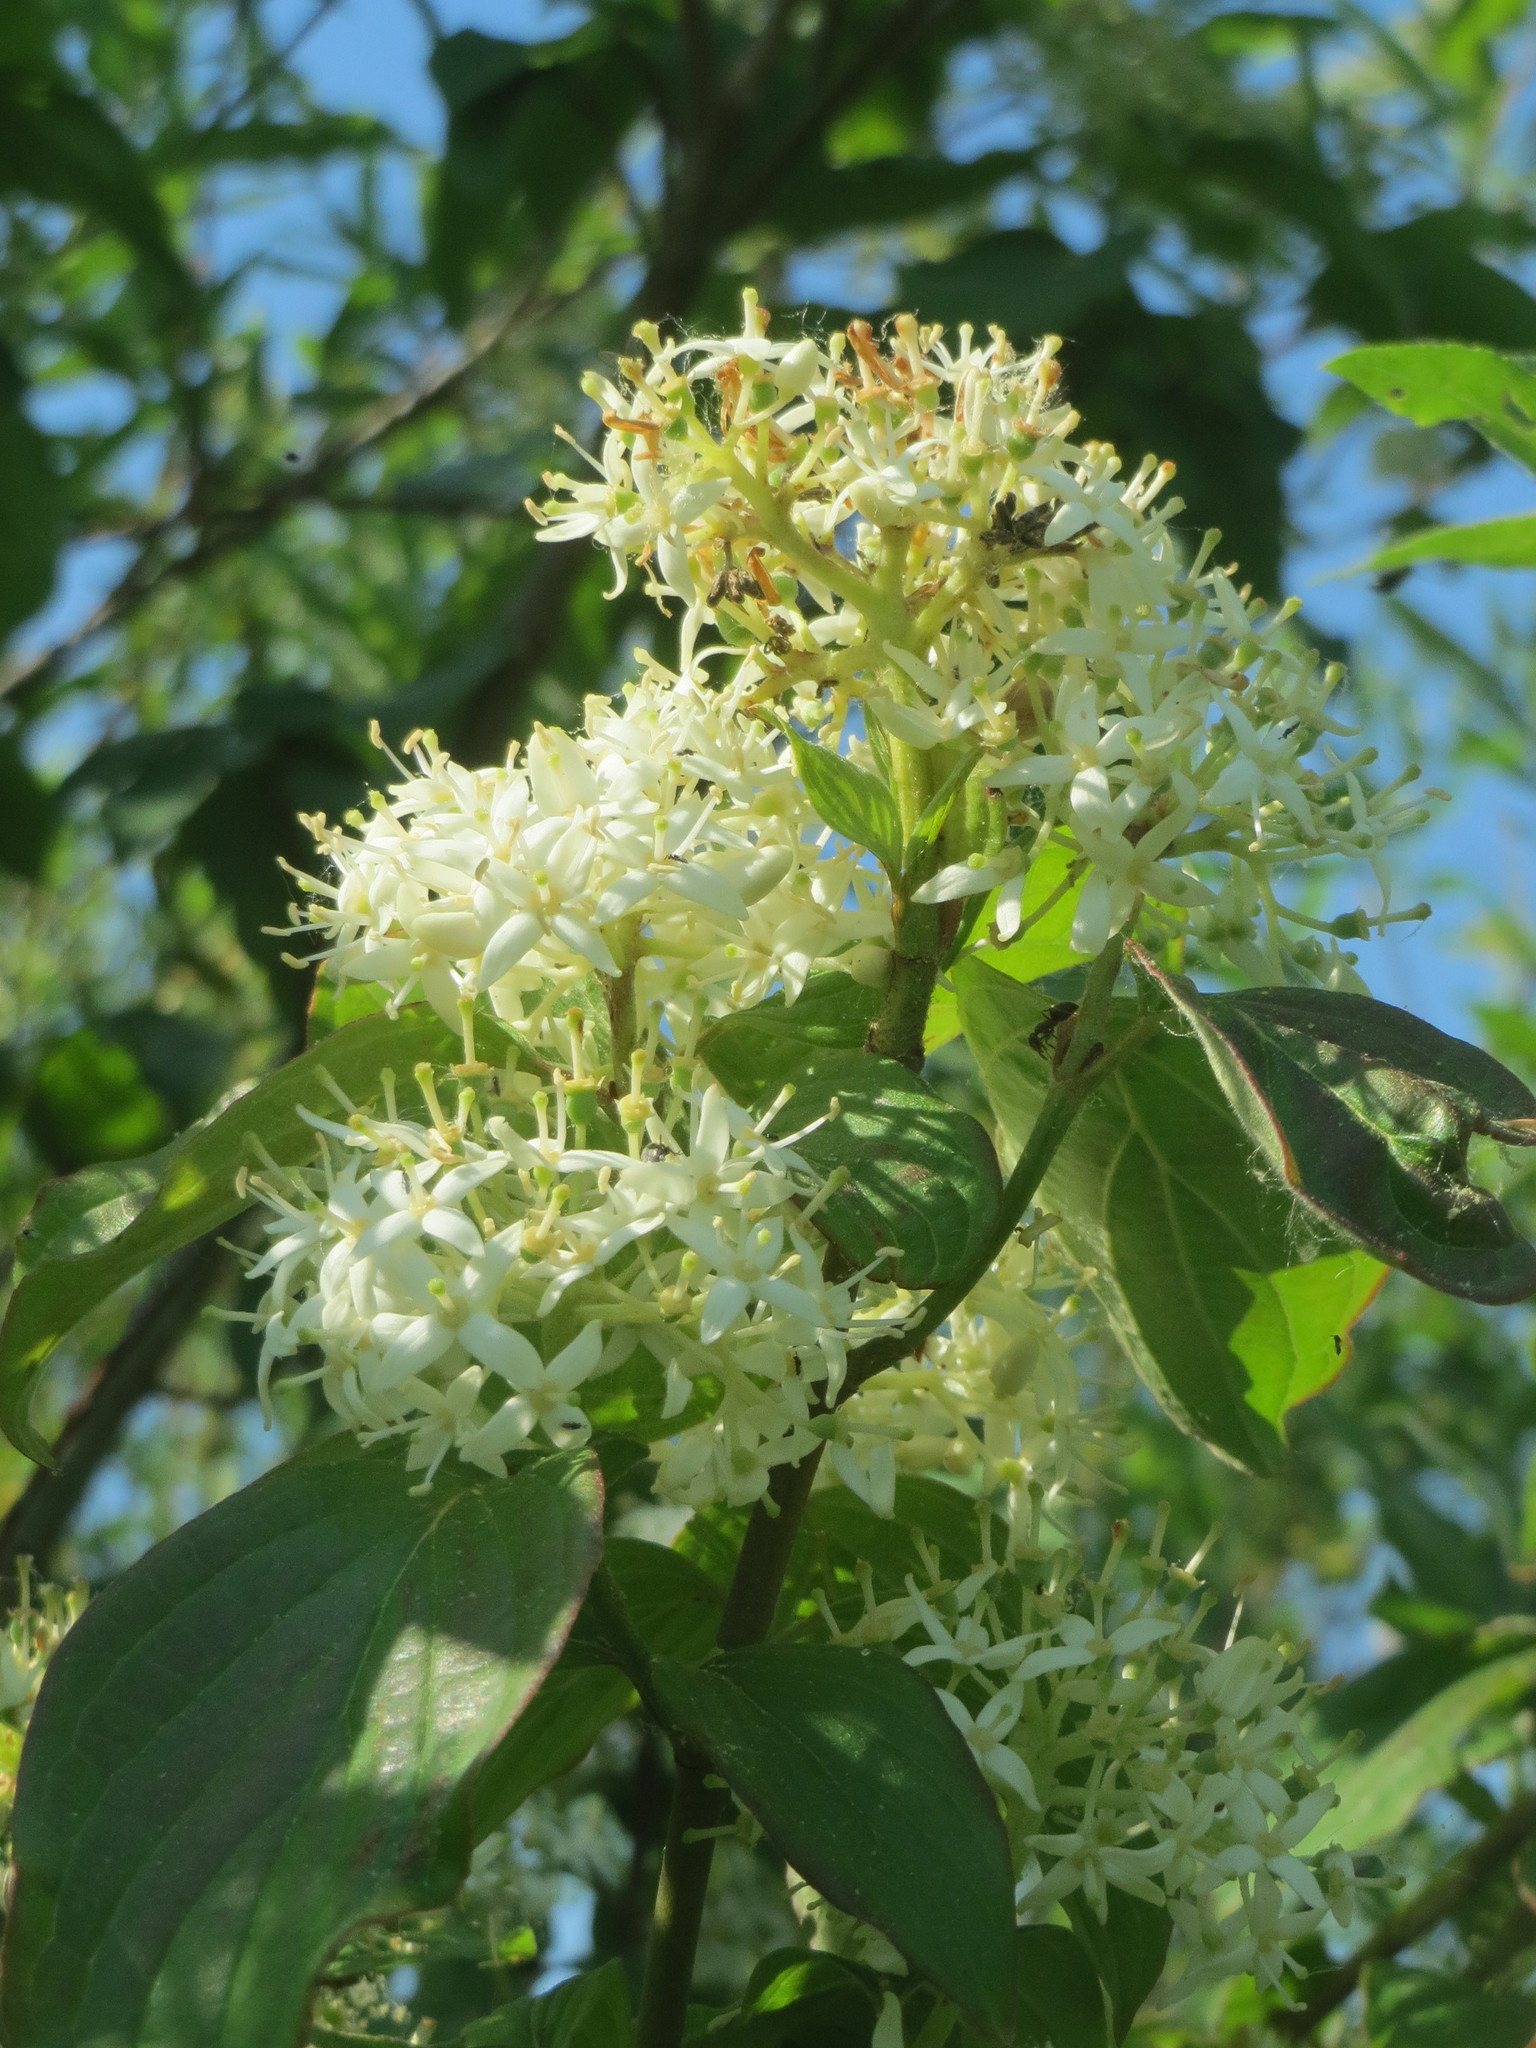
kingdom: Plantae
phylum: Tracheophyta
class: Magnoliopsida
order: Cornales
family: Cornaceae
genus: Cornus
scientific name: Cornus sanguinea
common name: Dogwood
